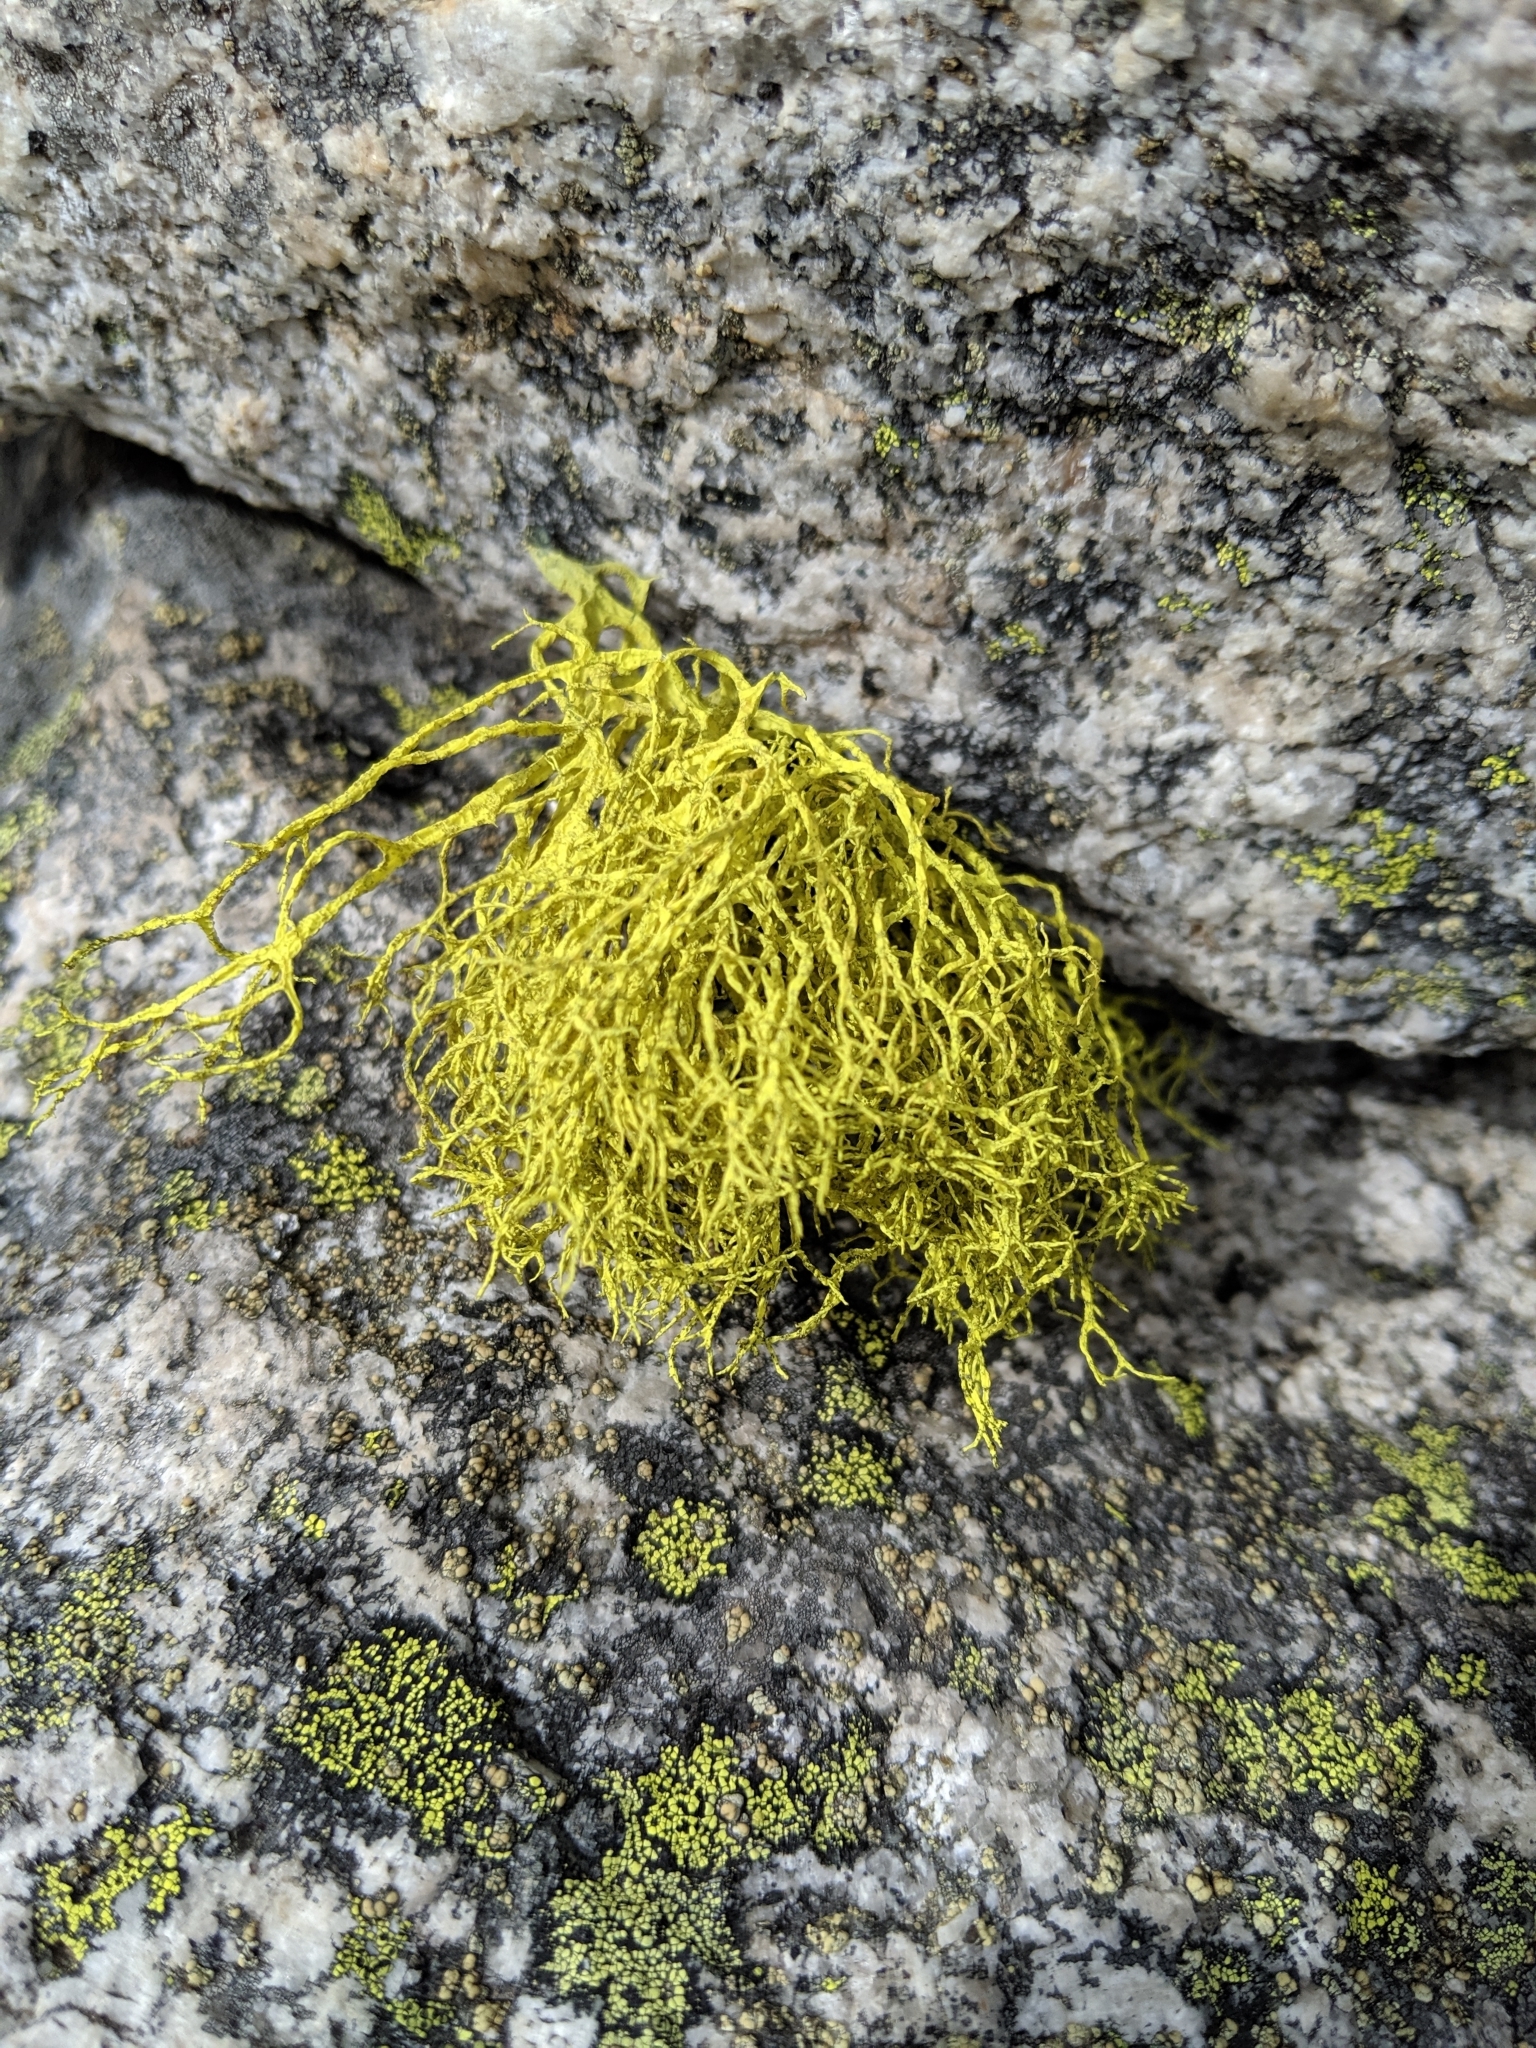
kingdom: Fungi
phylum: Ascomycota
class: Lecanoromycetes
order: Lecanorales
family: Parmeliaceae
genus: Letharia
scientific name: Letharia vulpina
